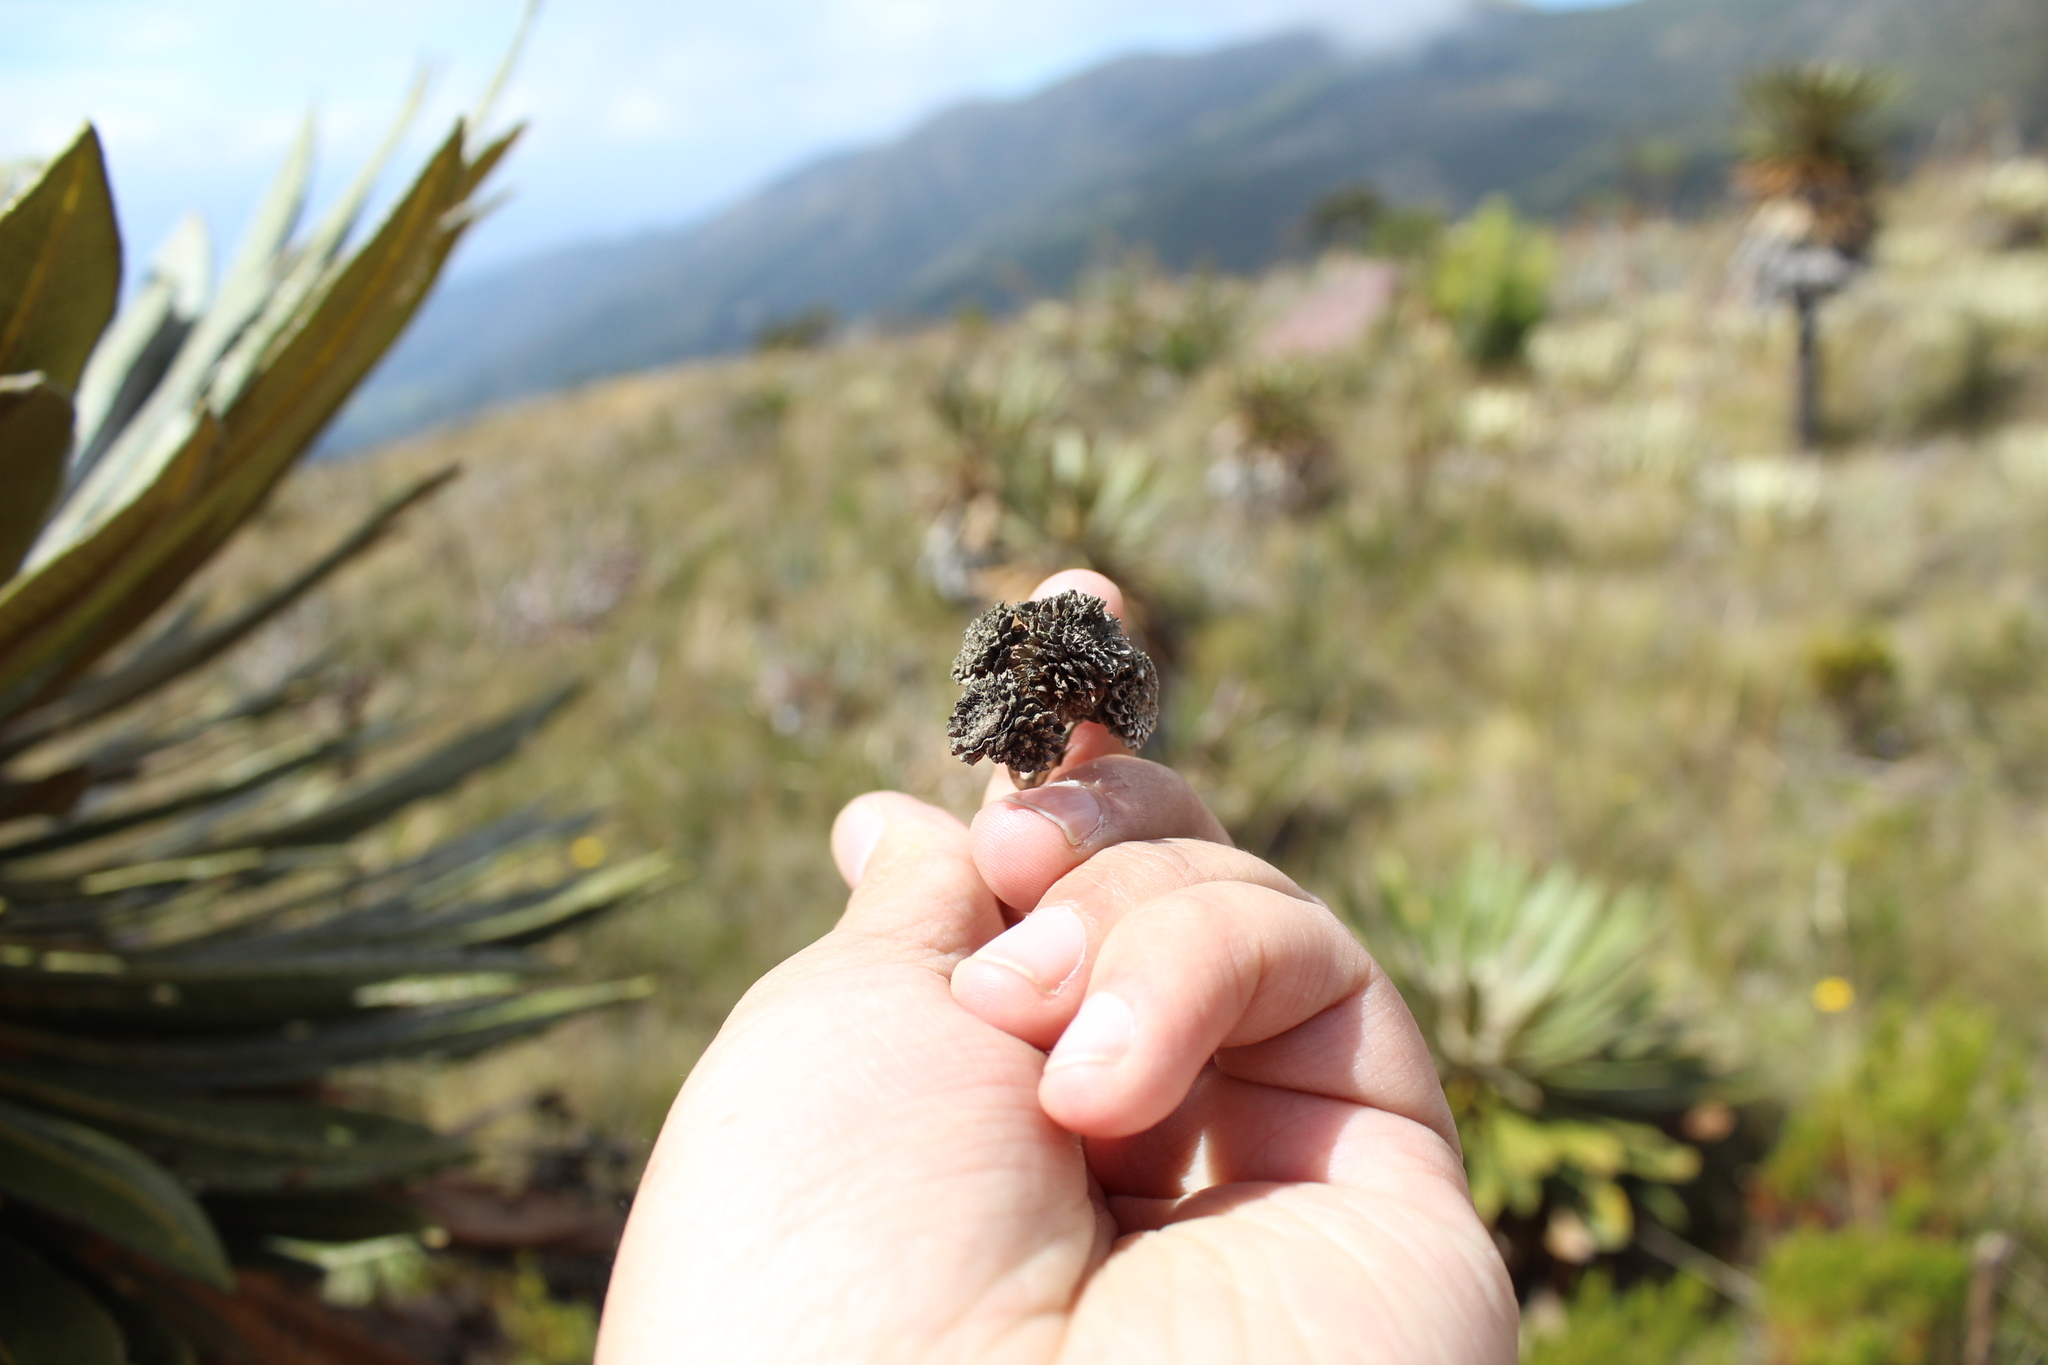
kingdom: Plantae
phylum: Tracheophyta
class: Magnoliopsida
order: Asterales
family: Asteraceae
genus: Espeletia
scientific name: Espeletia guacharaca
